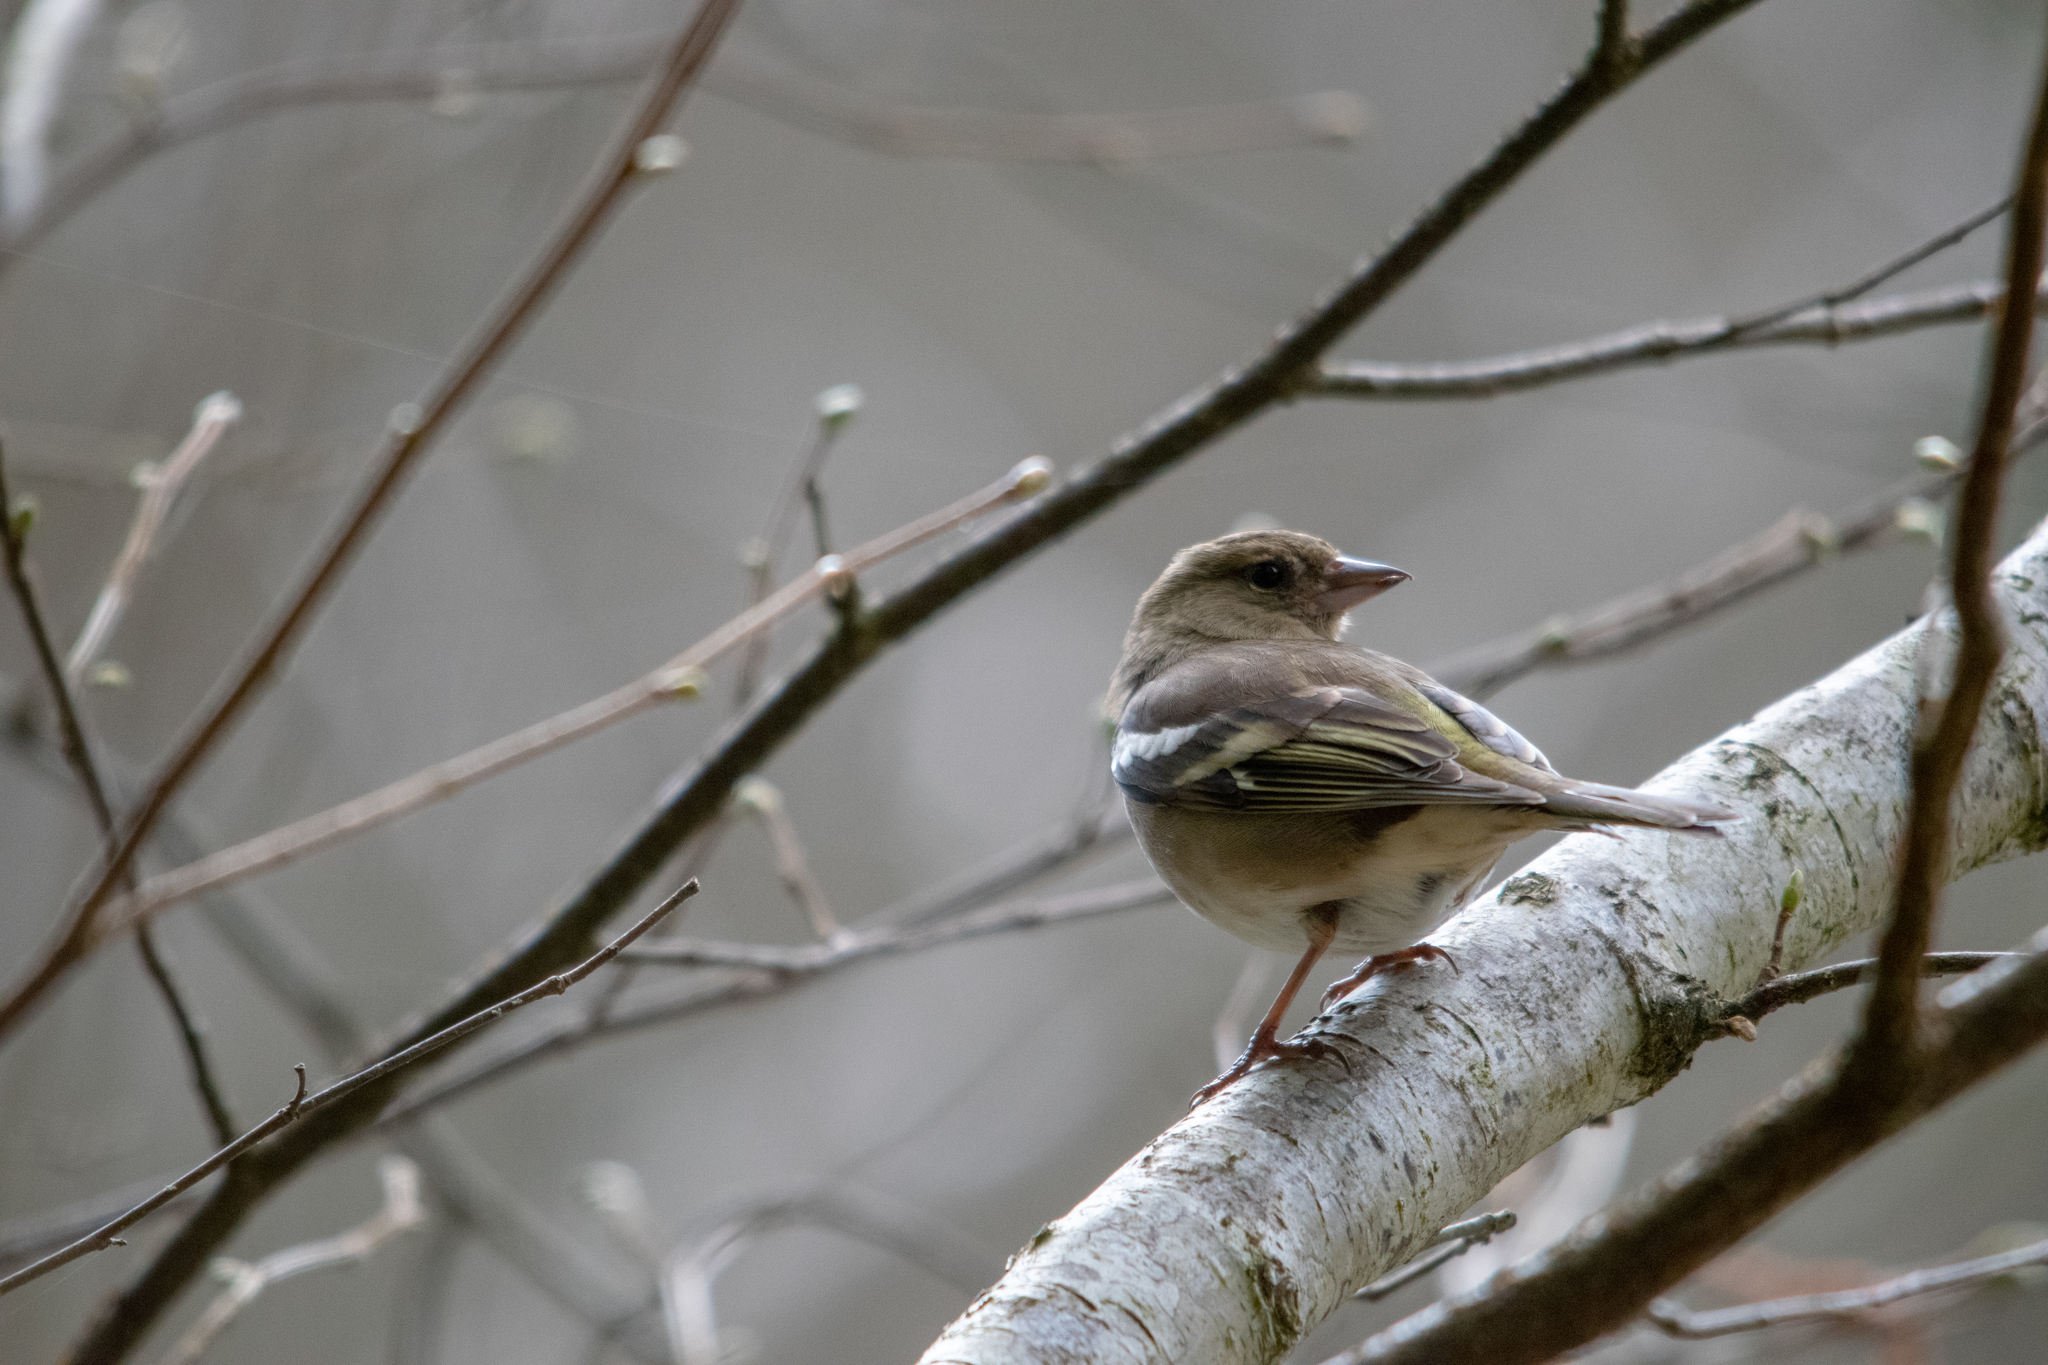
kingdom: Animalia
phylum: Chordata
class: Aves
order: Passeriformes
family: Fringillidae
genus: Fringilla
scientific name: Fringilla coelebs
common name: Common chaffinch
